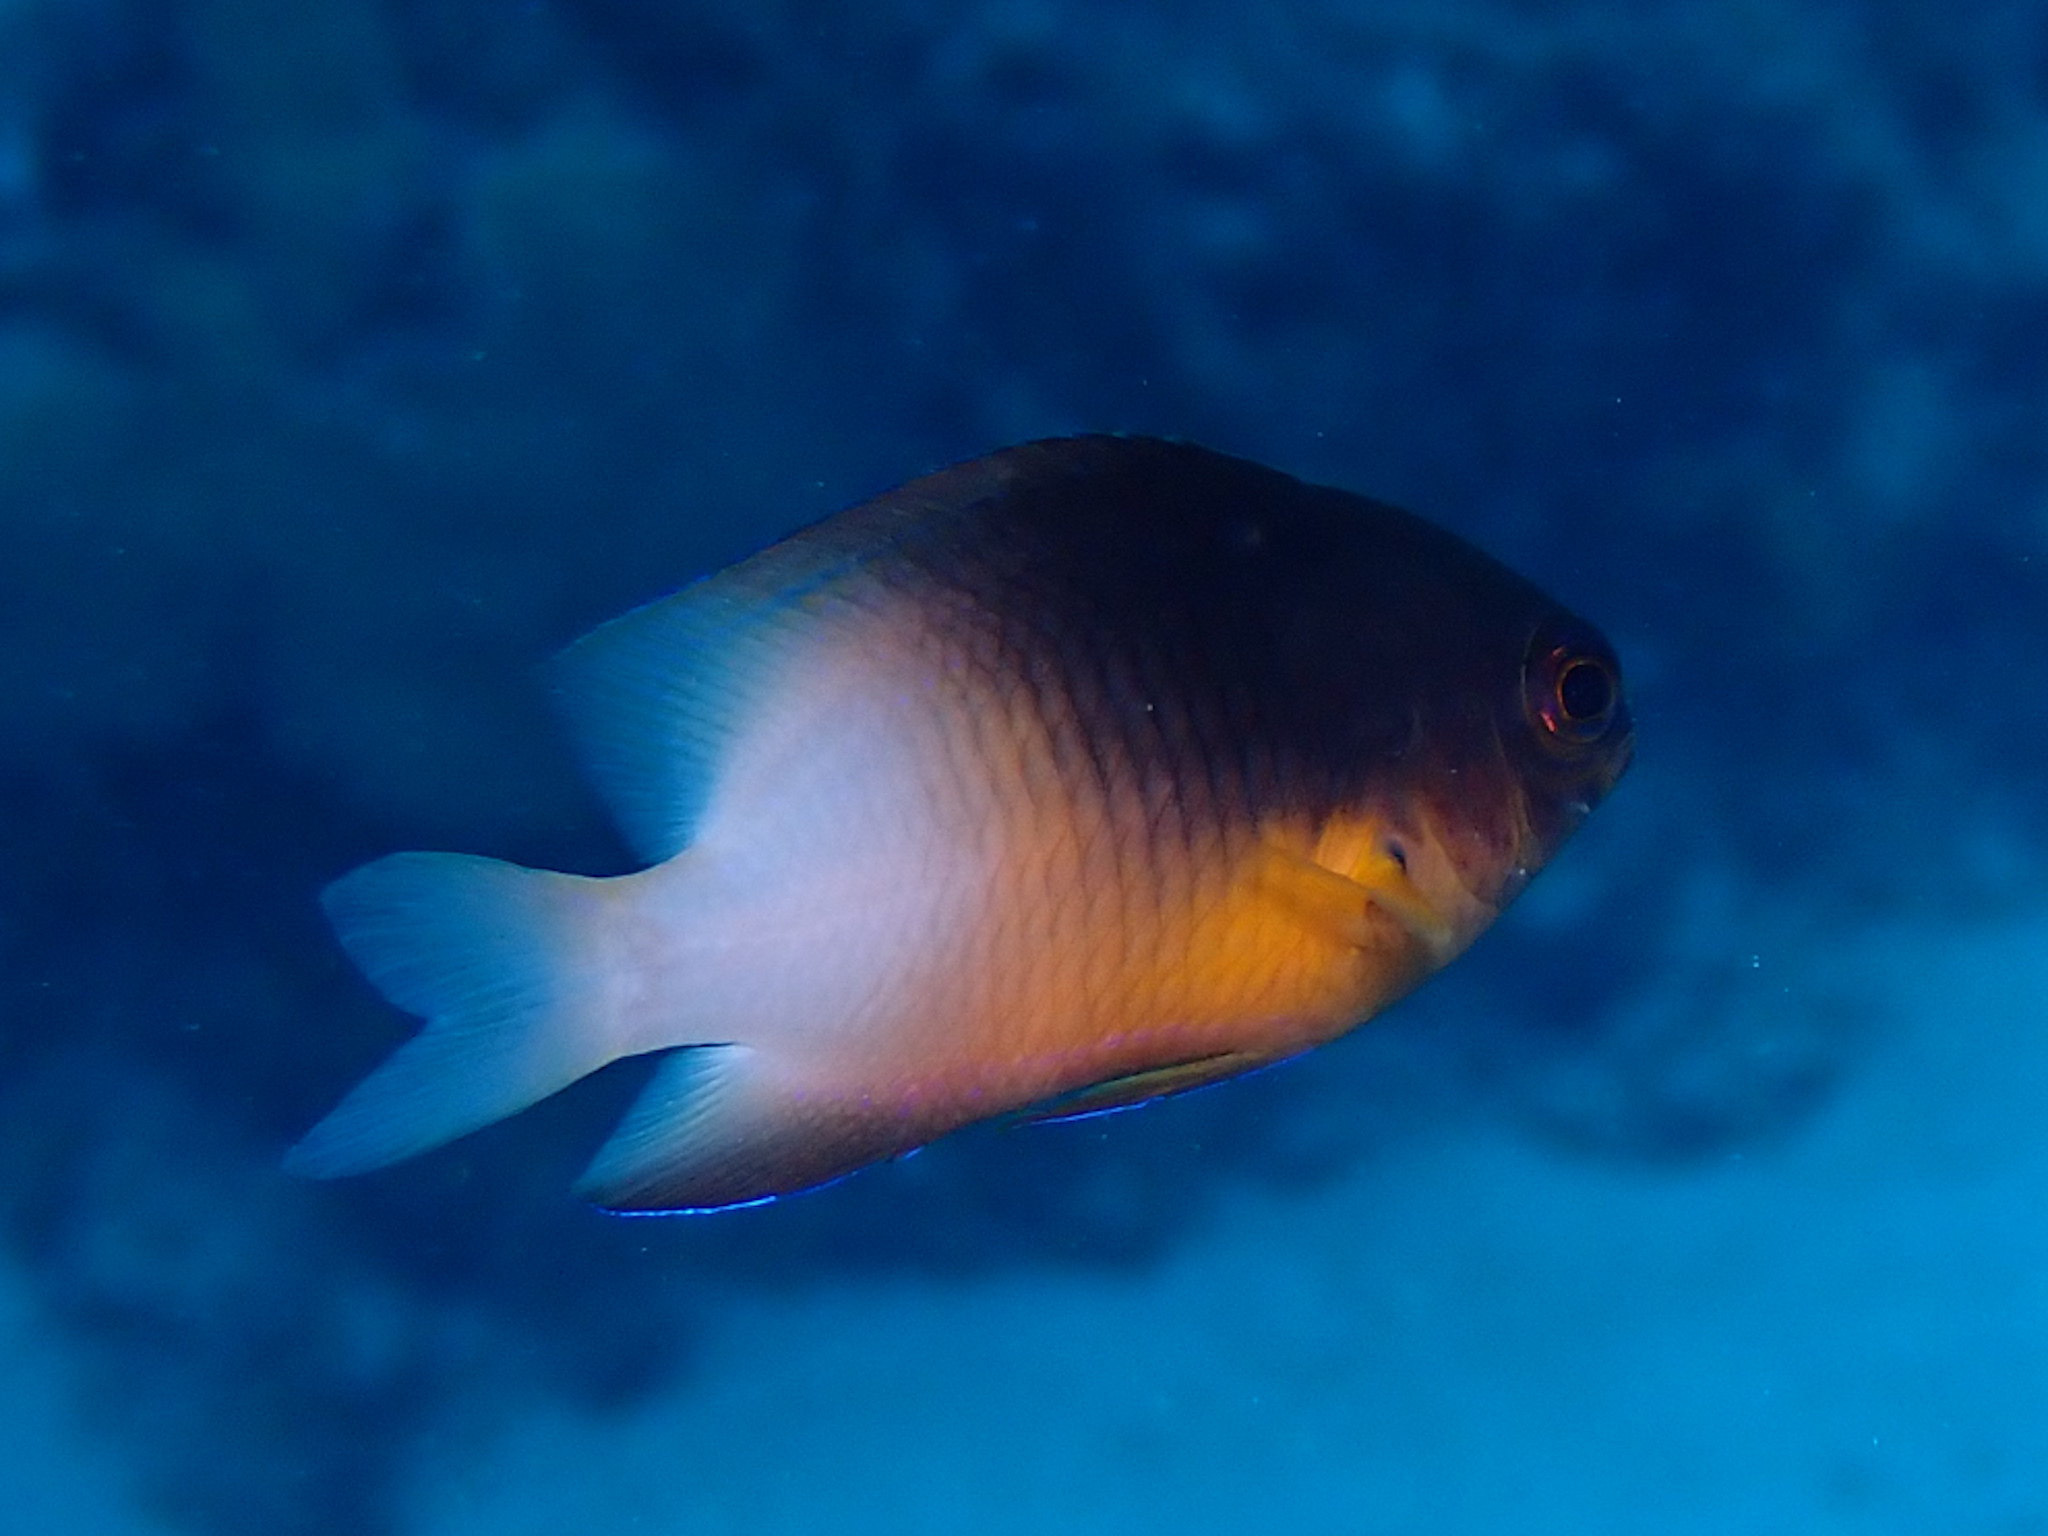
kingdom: Animalia
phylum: Chordata
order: Perciformes
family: Pomacentridae
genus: Stegastes
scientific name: Stegastes partitus
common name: Bicolor damselfish
